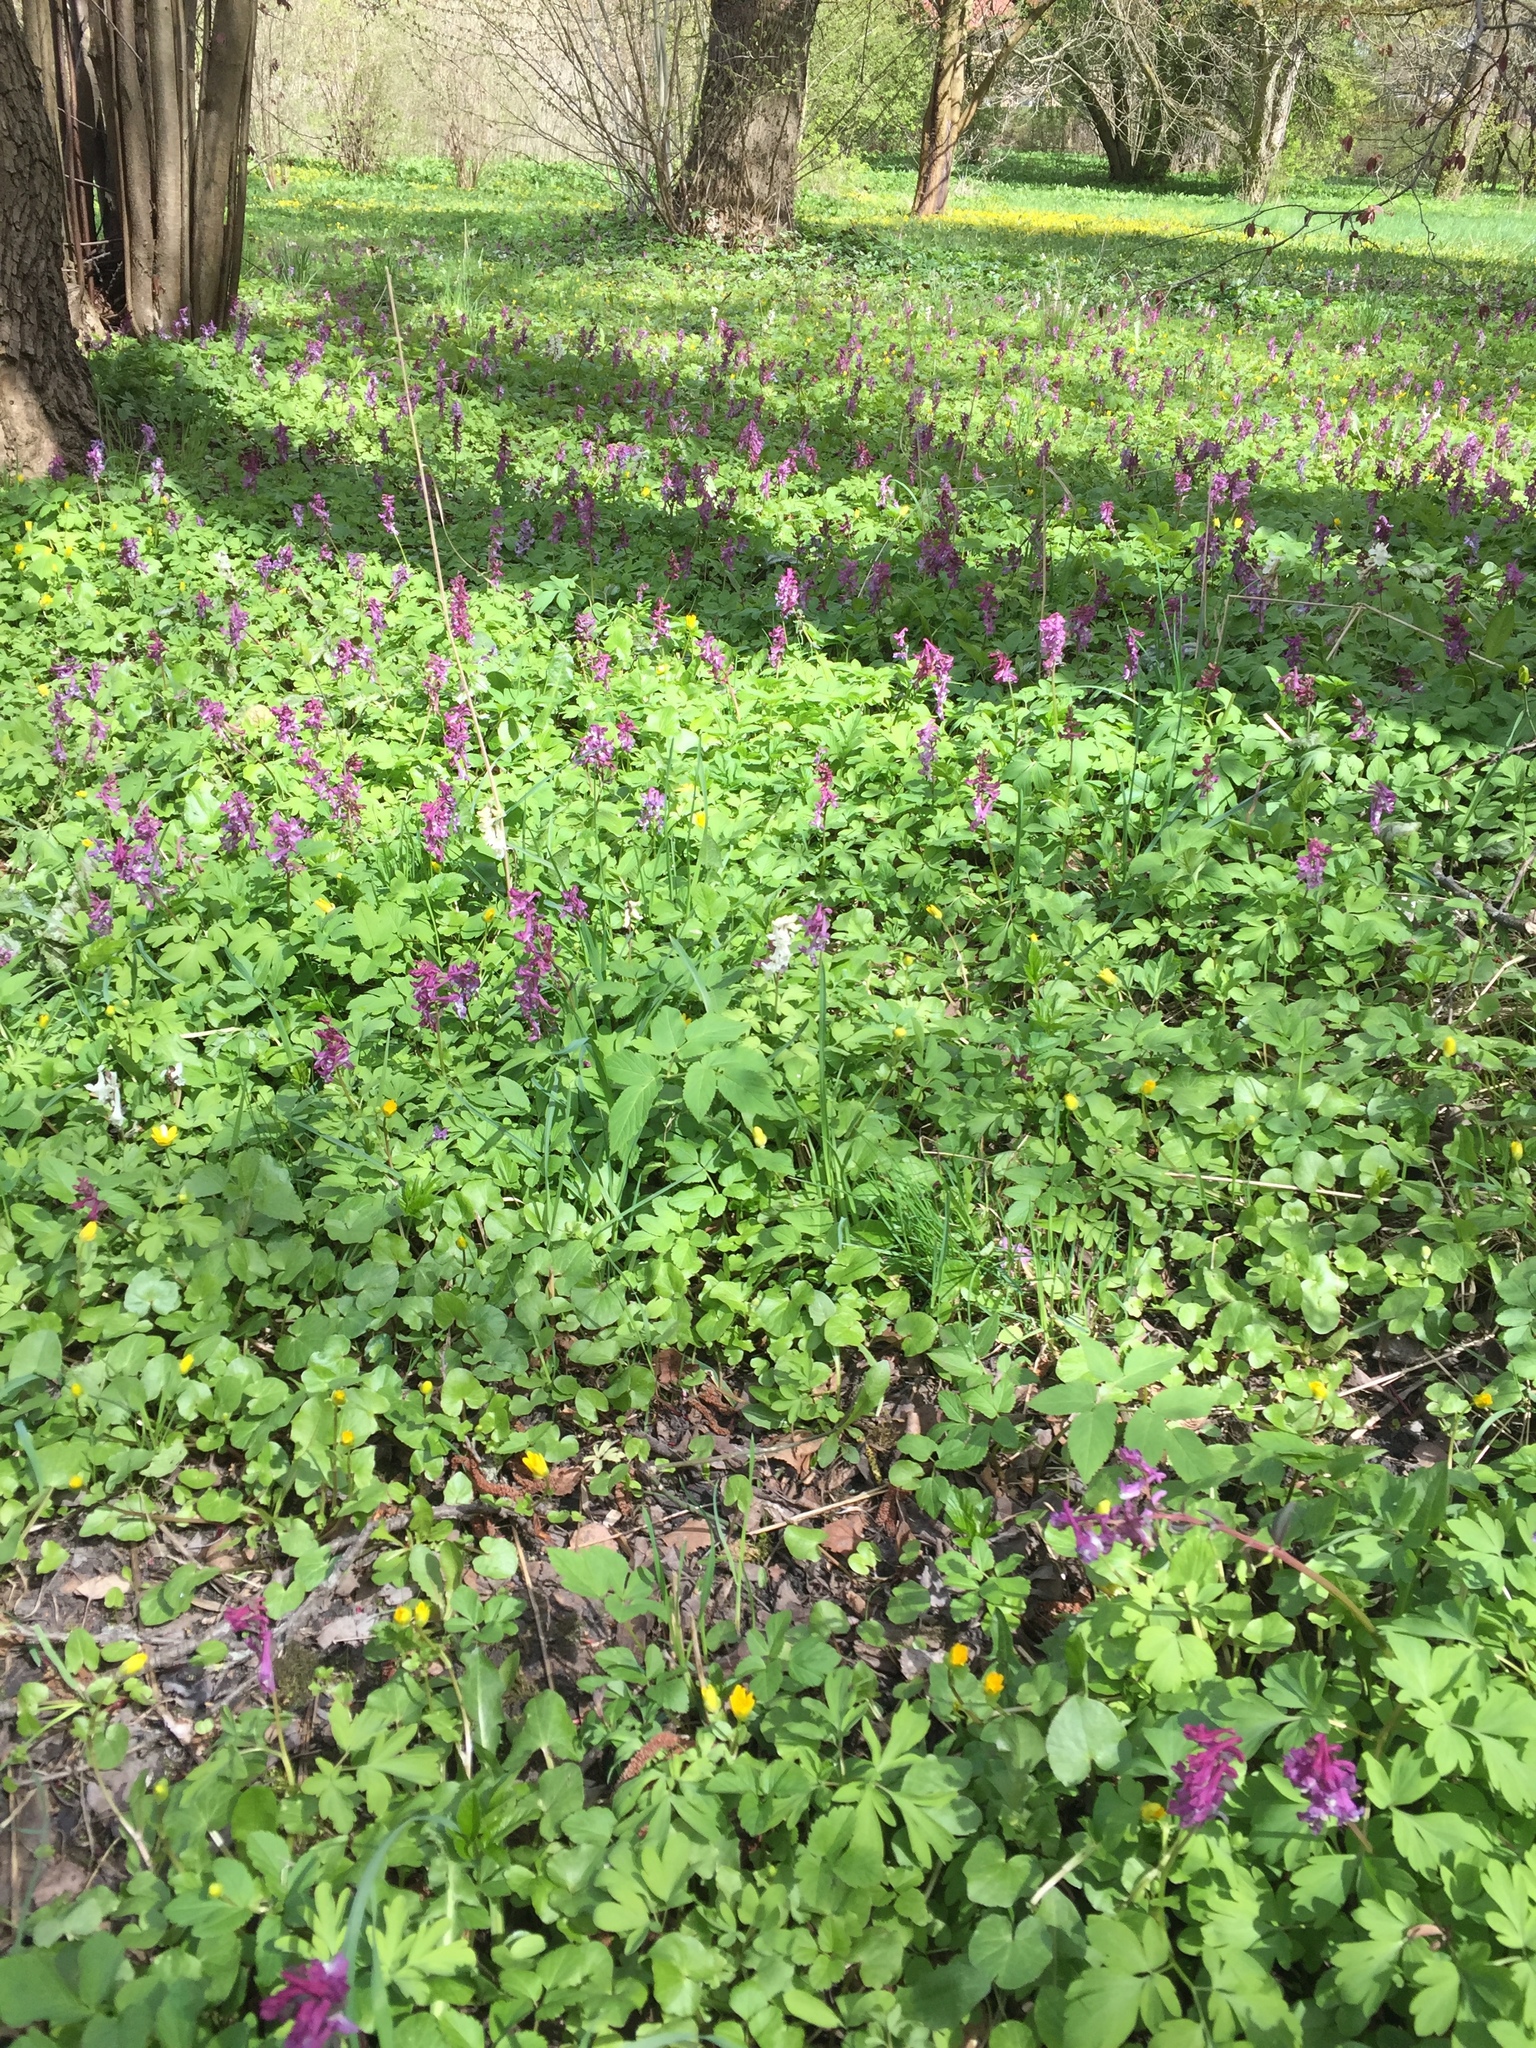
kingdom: Plantae
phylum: Tracheophyta
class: Magnoliopsida
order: Ranunculales
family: Papaveraceae
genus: Corydalis
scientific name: Corydalis cava
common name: Hollowroot
